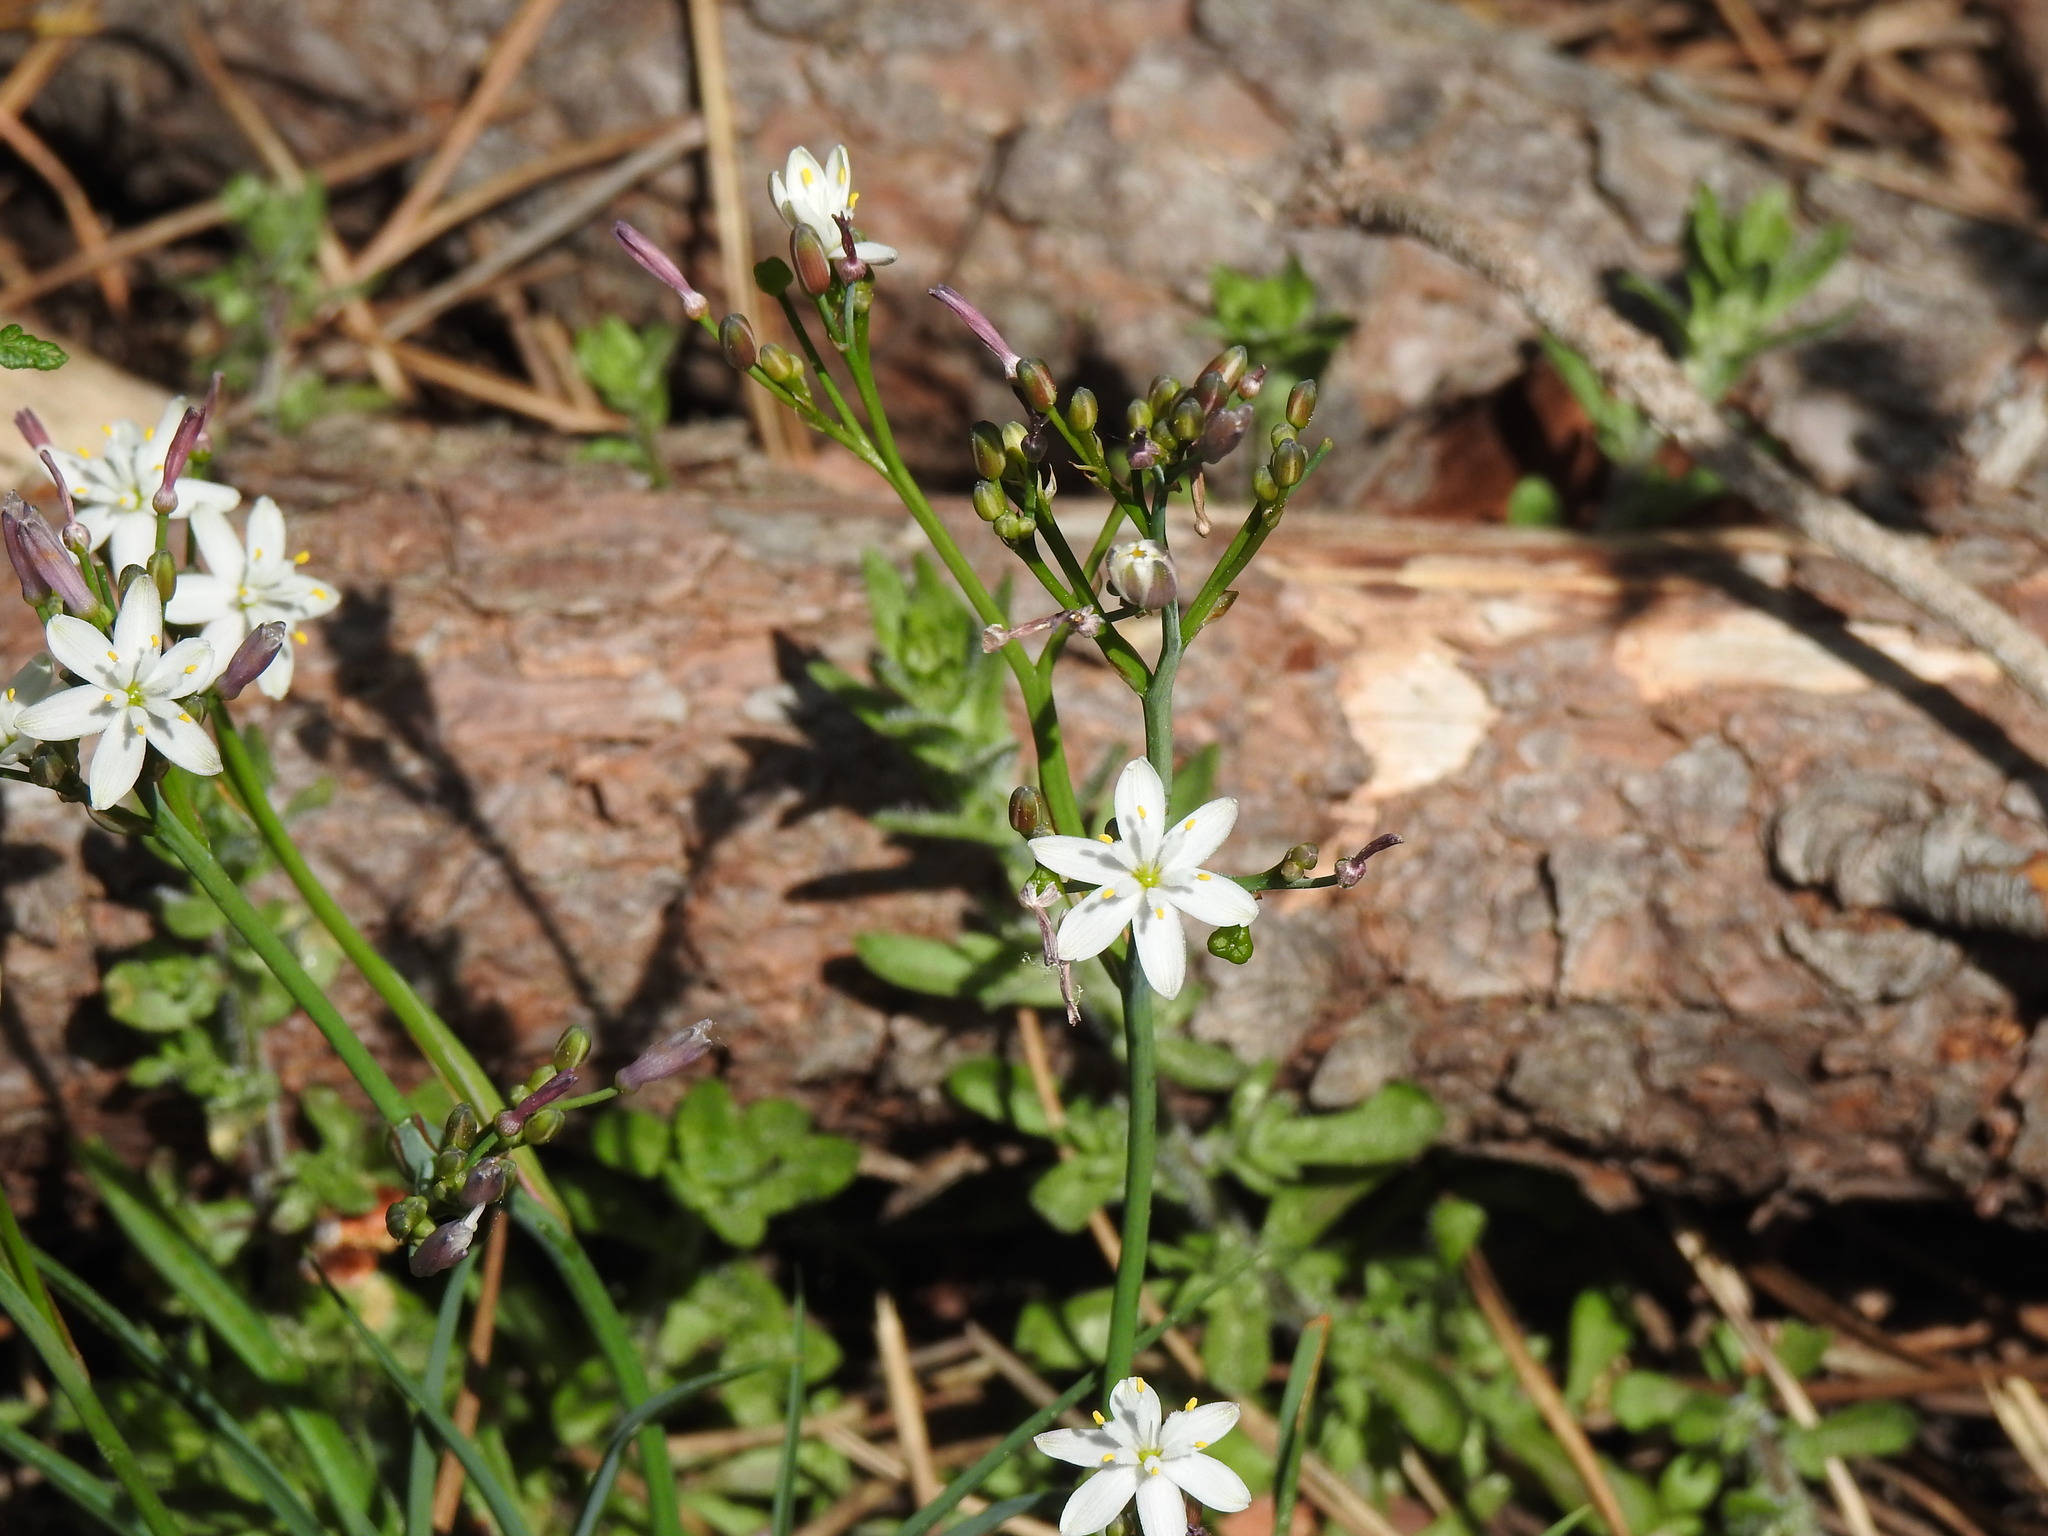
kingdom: Plantae
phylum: Tracheophyta
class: Liliopsida
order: Asparagales
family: Asphodelaceae
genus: Simethis
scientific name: Simethis mattiazzii
